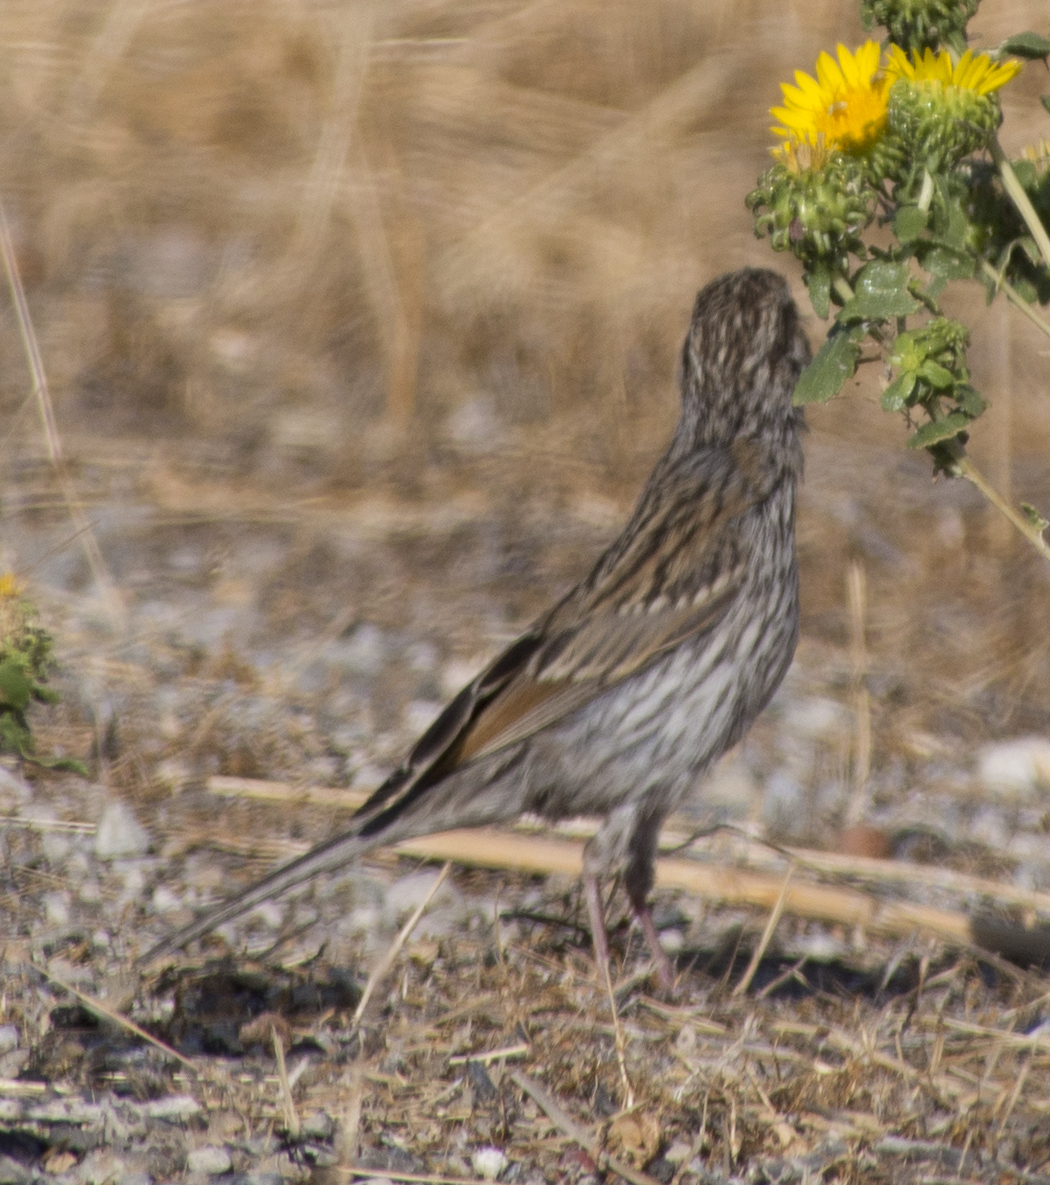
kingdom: Animalia
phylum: Chordata
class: Aves
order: Passeriformes
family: Passerellidae
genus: Spizella
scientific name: Spizella passerina
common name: Chipping sparrow
